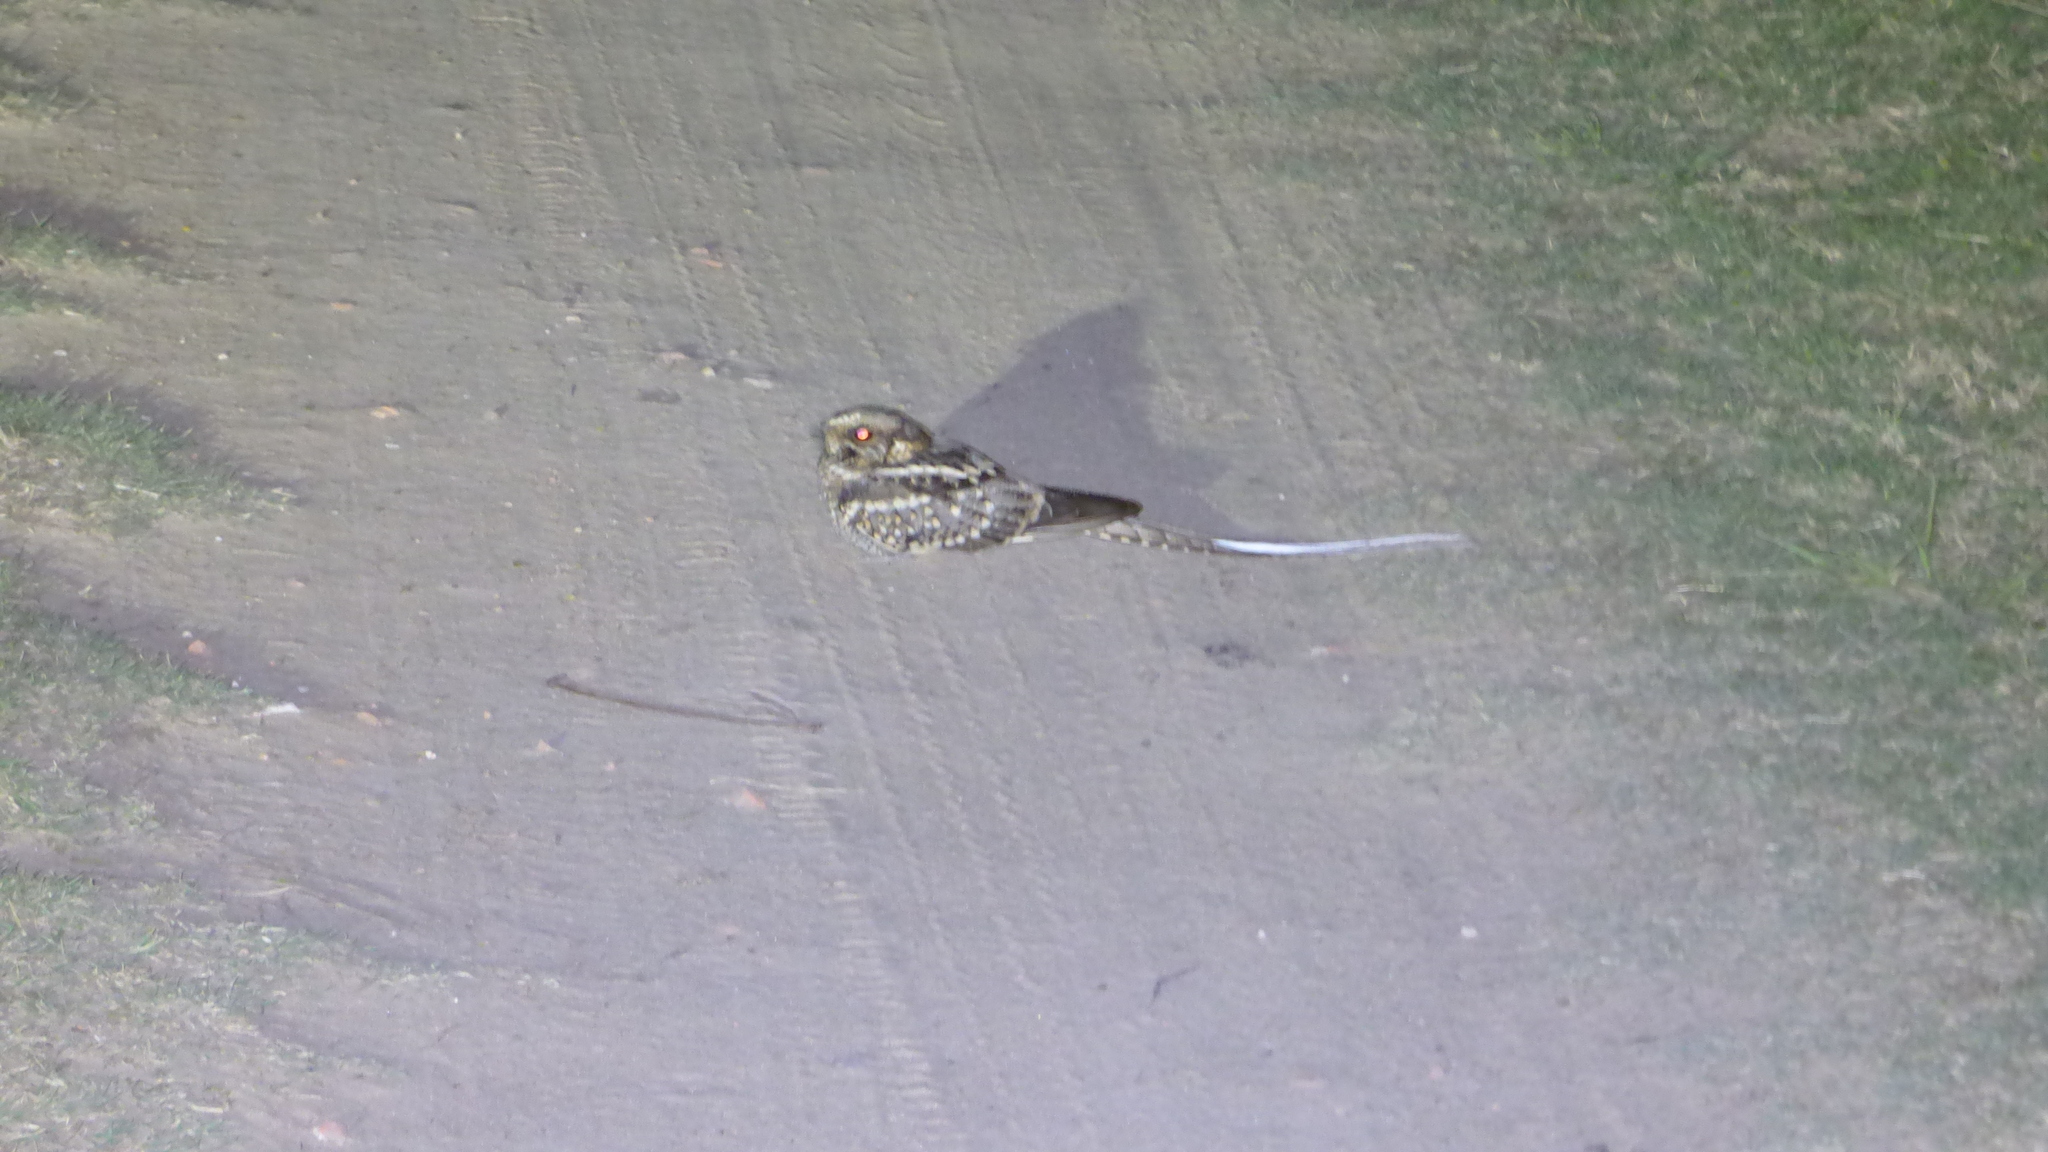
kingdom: Animalia
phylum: Chordata
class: Aves
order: Caprimulgiformes
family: Caprimulgidae
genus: Hydropsalis
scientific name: Hydropsalis torquata
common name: Scissor-tailed nightjar
